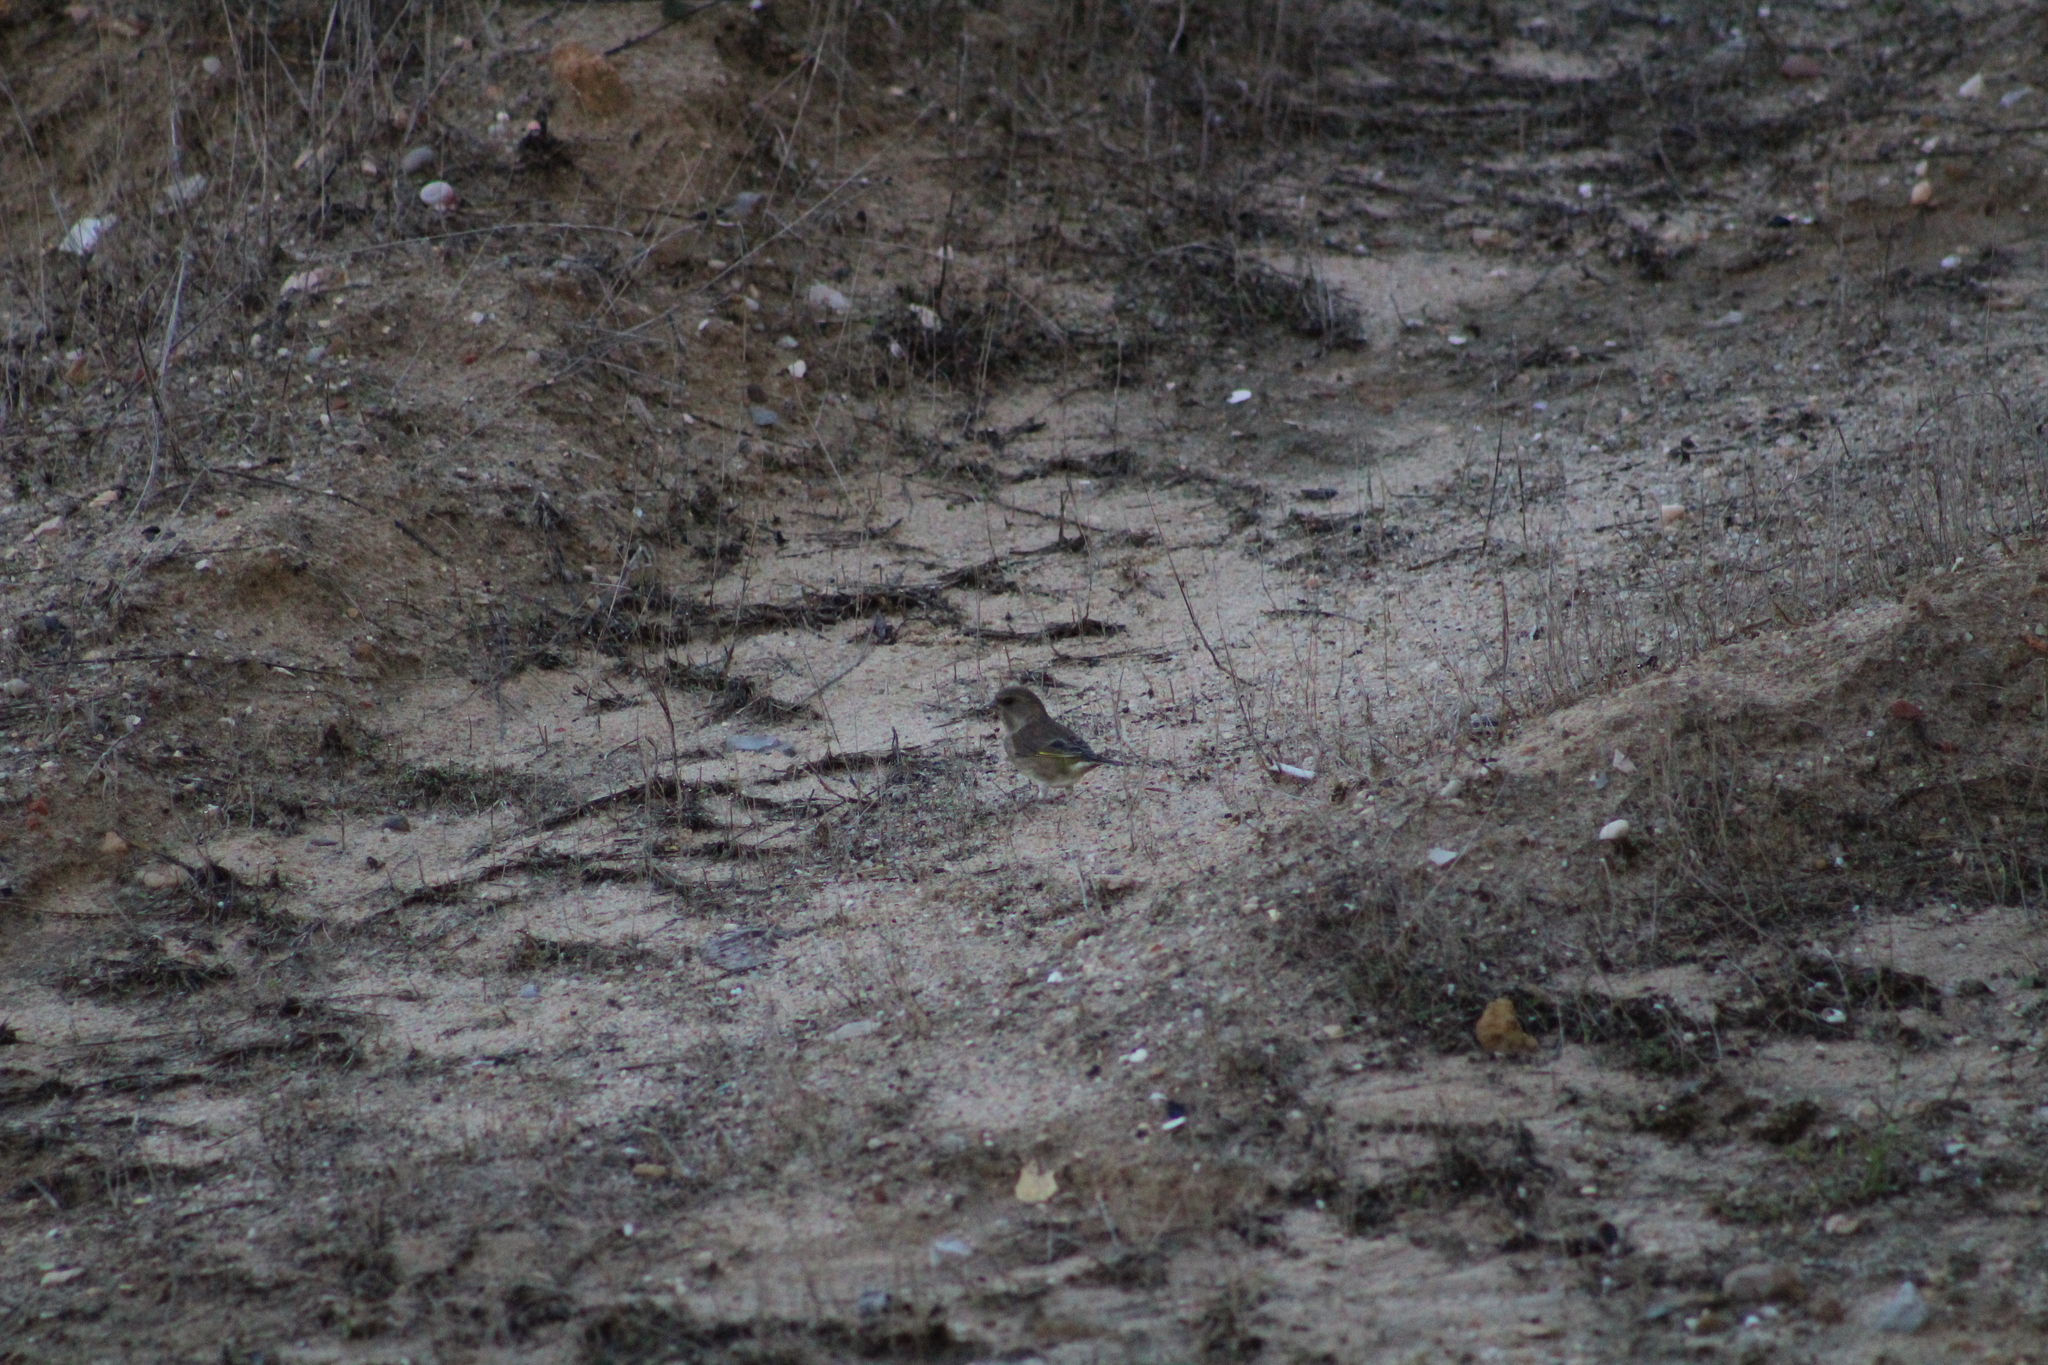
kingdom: Plantae
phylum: Tracheophyta
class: Liliopsida
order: Poales
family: Poaceae
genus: Chloris
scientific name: Chloris chloris
